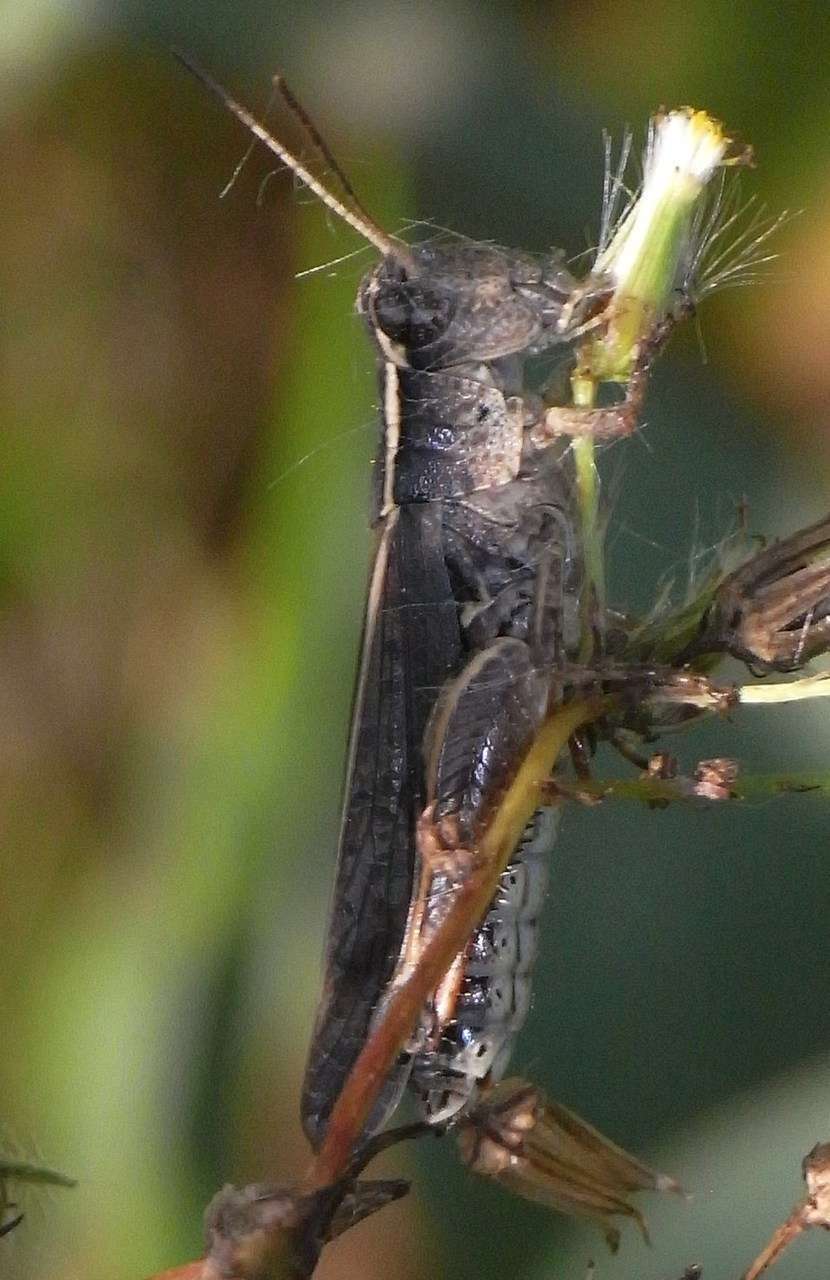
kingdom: Animalia
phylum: Arthropoda
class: Insecta
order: Orthoptera
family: Acrididae
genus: Phaulacridium
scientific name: Phaulacridium vittatum
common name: Wingless grasshopper
